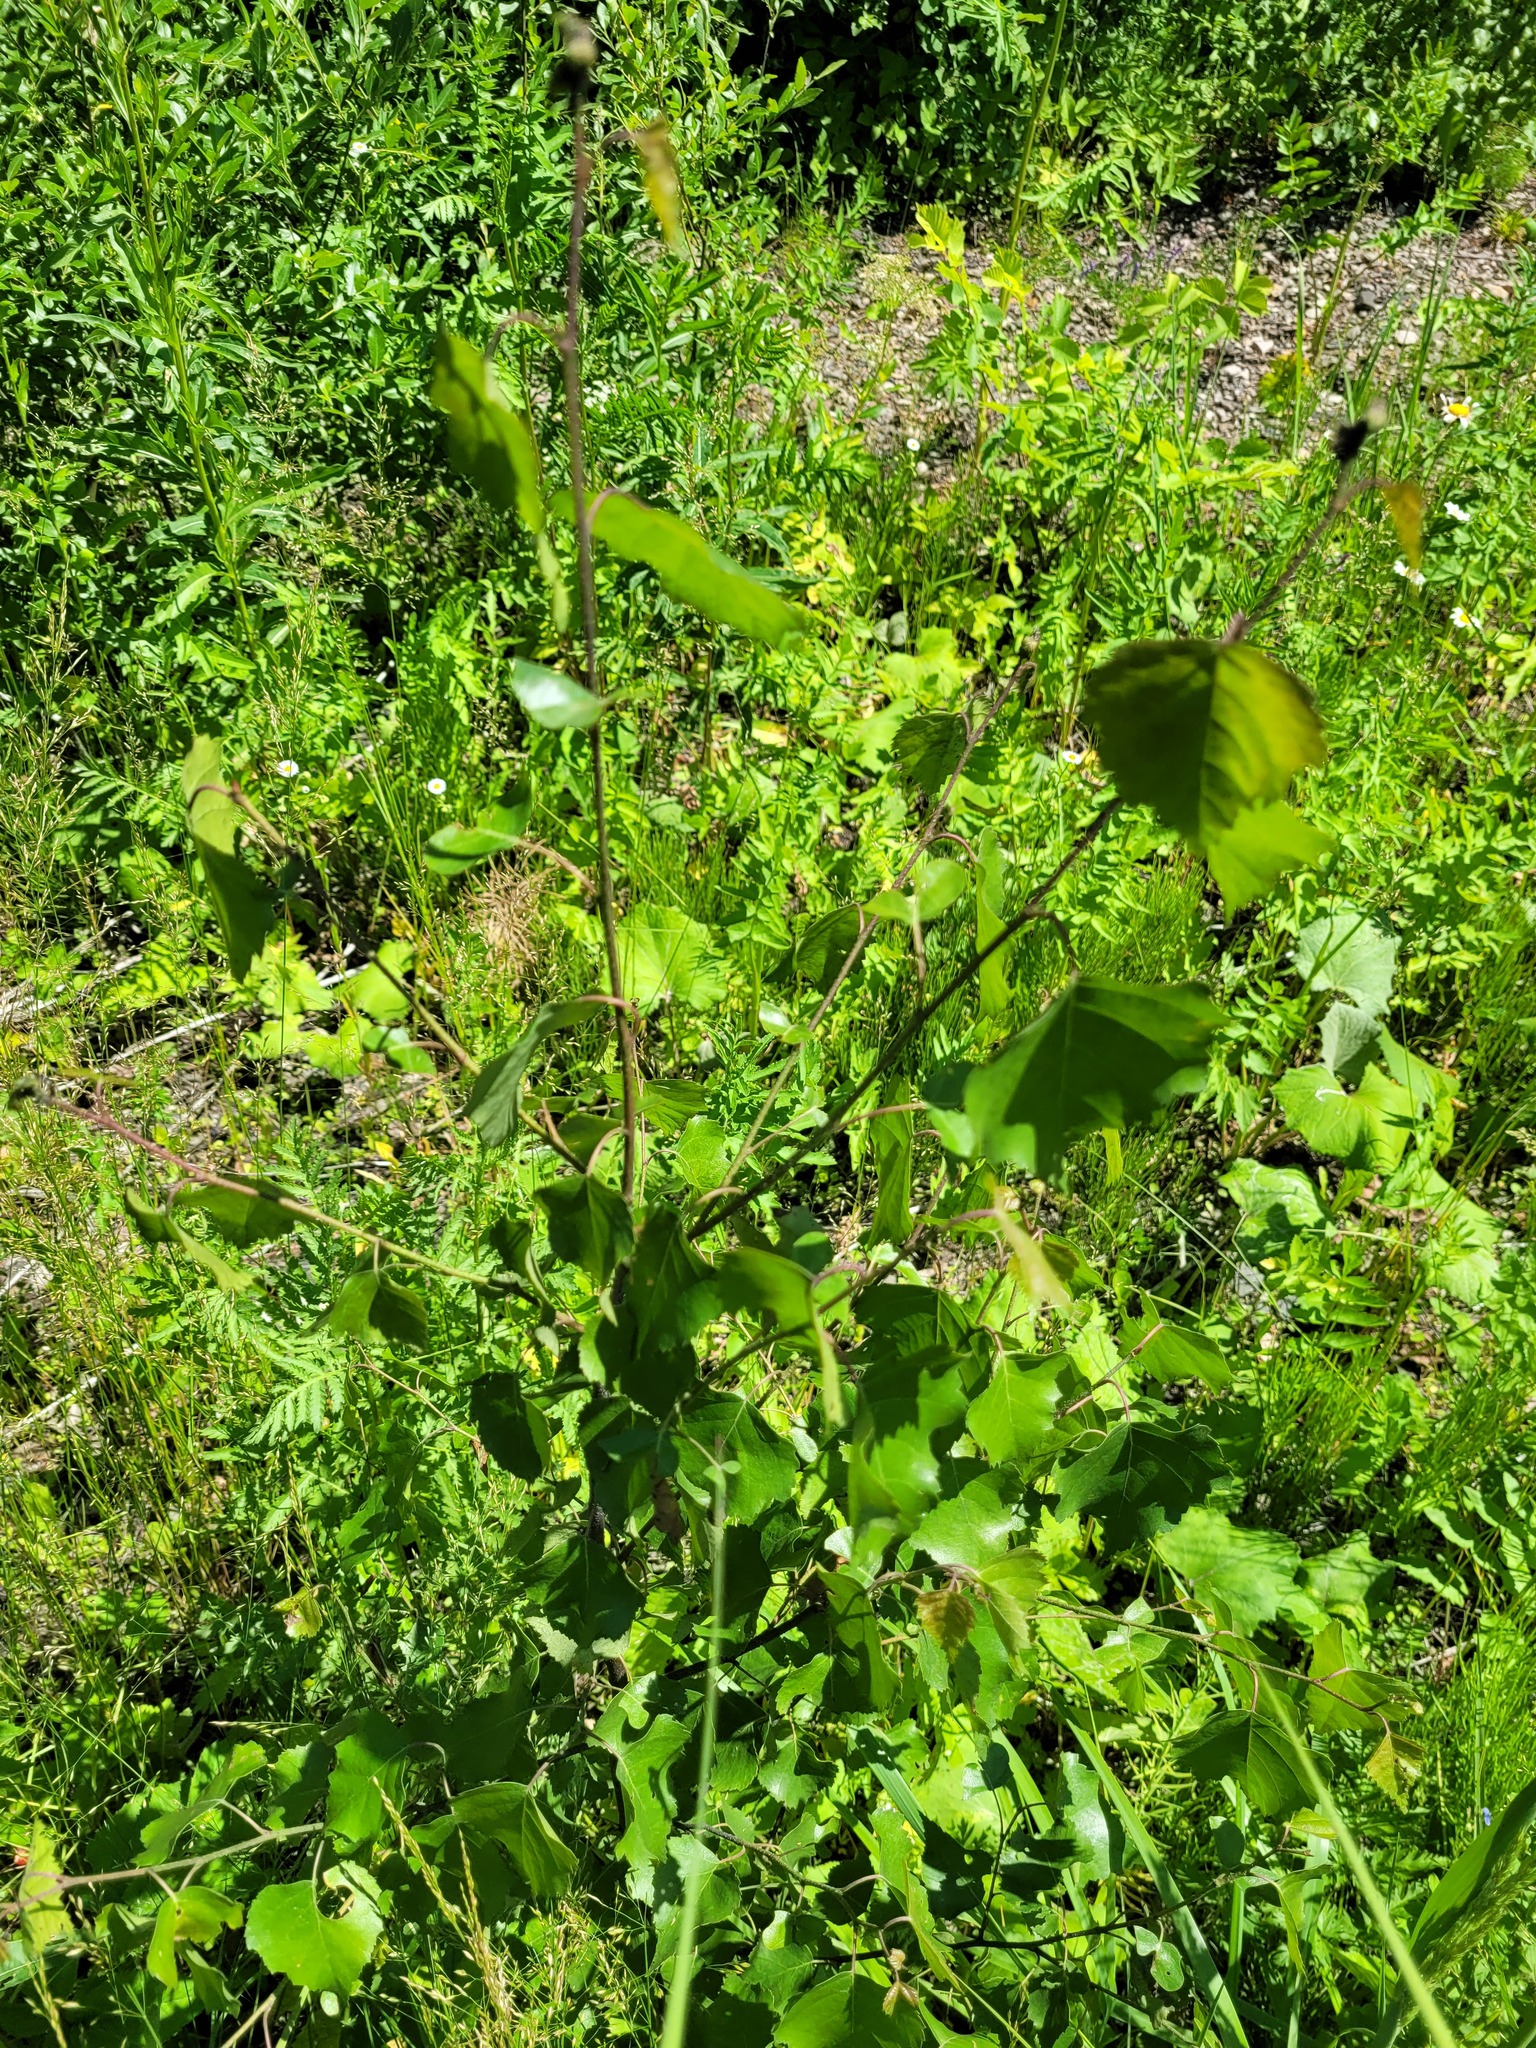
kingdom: Plantae
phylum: Tracheophyta
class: Magnoliopsida
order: Fagales
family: Betulaceae
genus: Betula
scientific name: Betula pendula
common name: Silver birch
